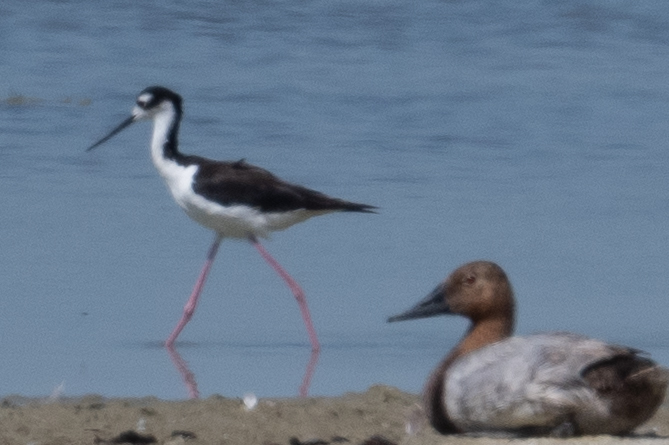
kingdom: Animalia
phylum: Chordata
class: Aves
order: Charadriiformes
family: Recurvirostridae
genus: Himantopus
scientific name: Himantopus mexicanus
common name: Black-necked stilt
